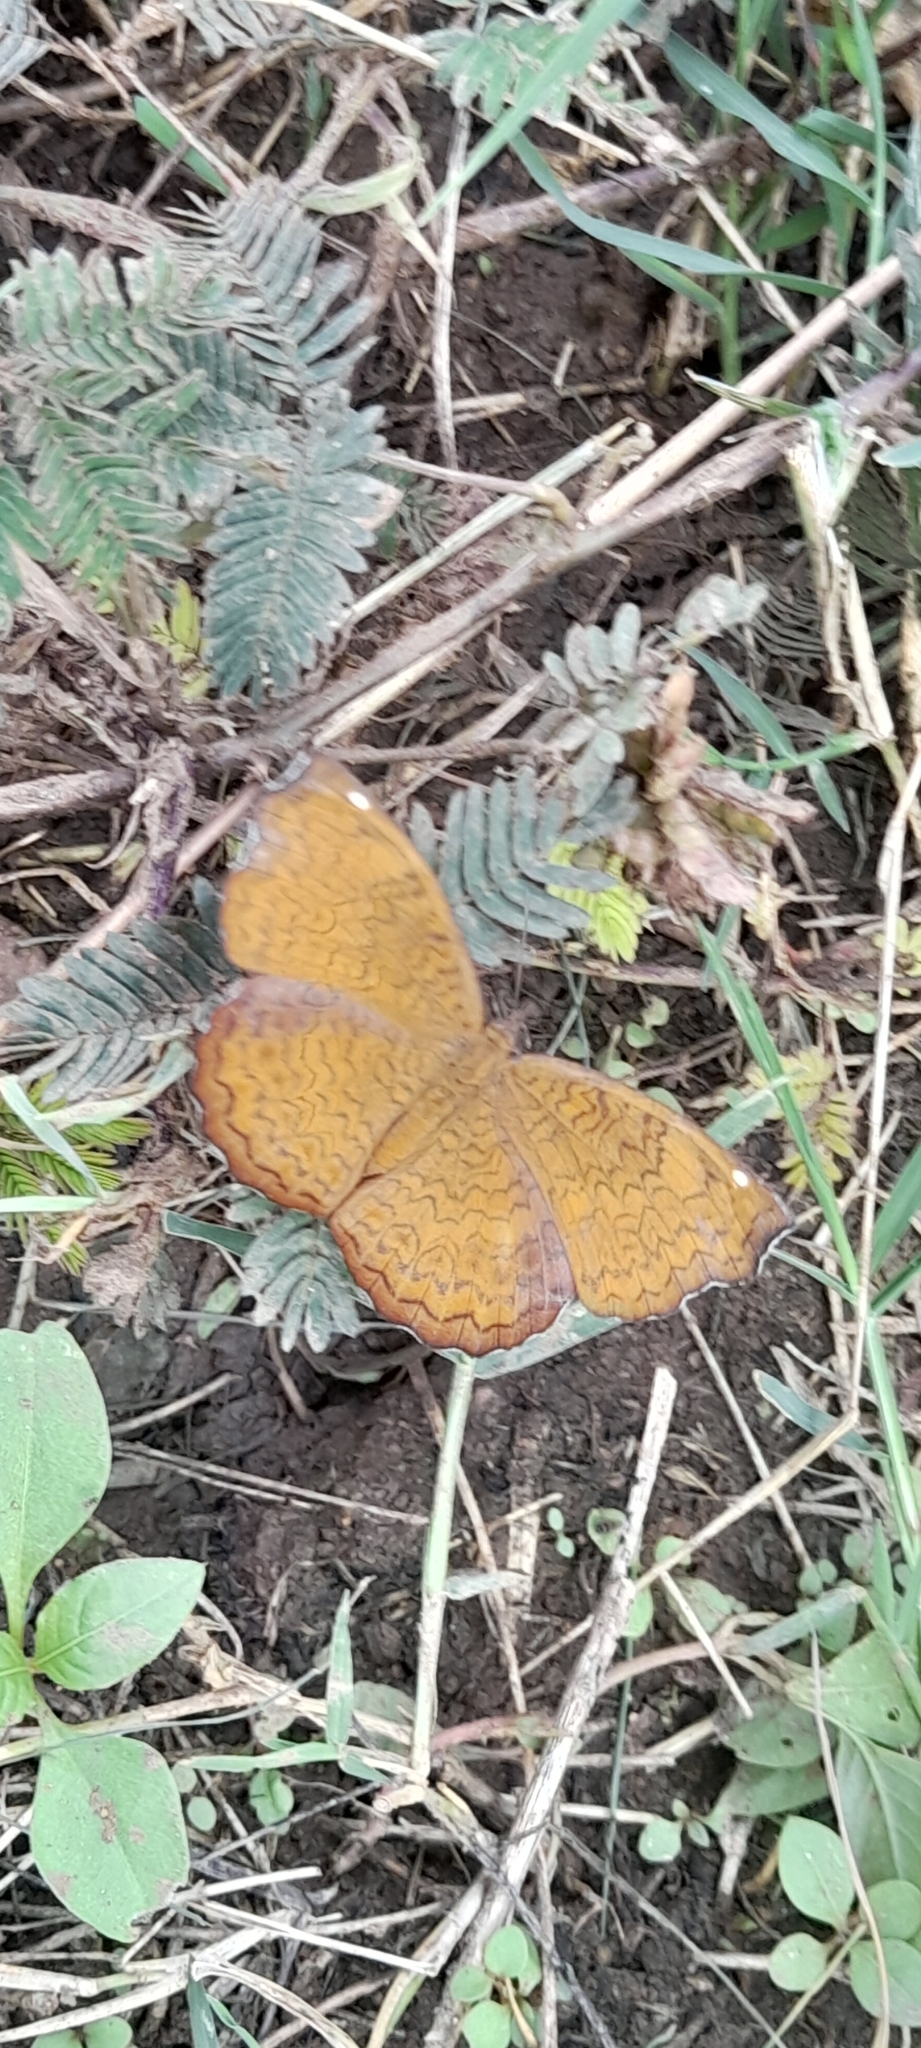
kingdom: Animalia
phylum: Arthropoda
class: Insecta
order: Lepidoptera
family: Nymphalidae
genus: Ariadne
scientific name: Ariadne merione
